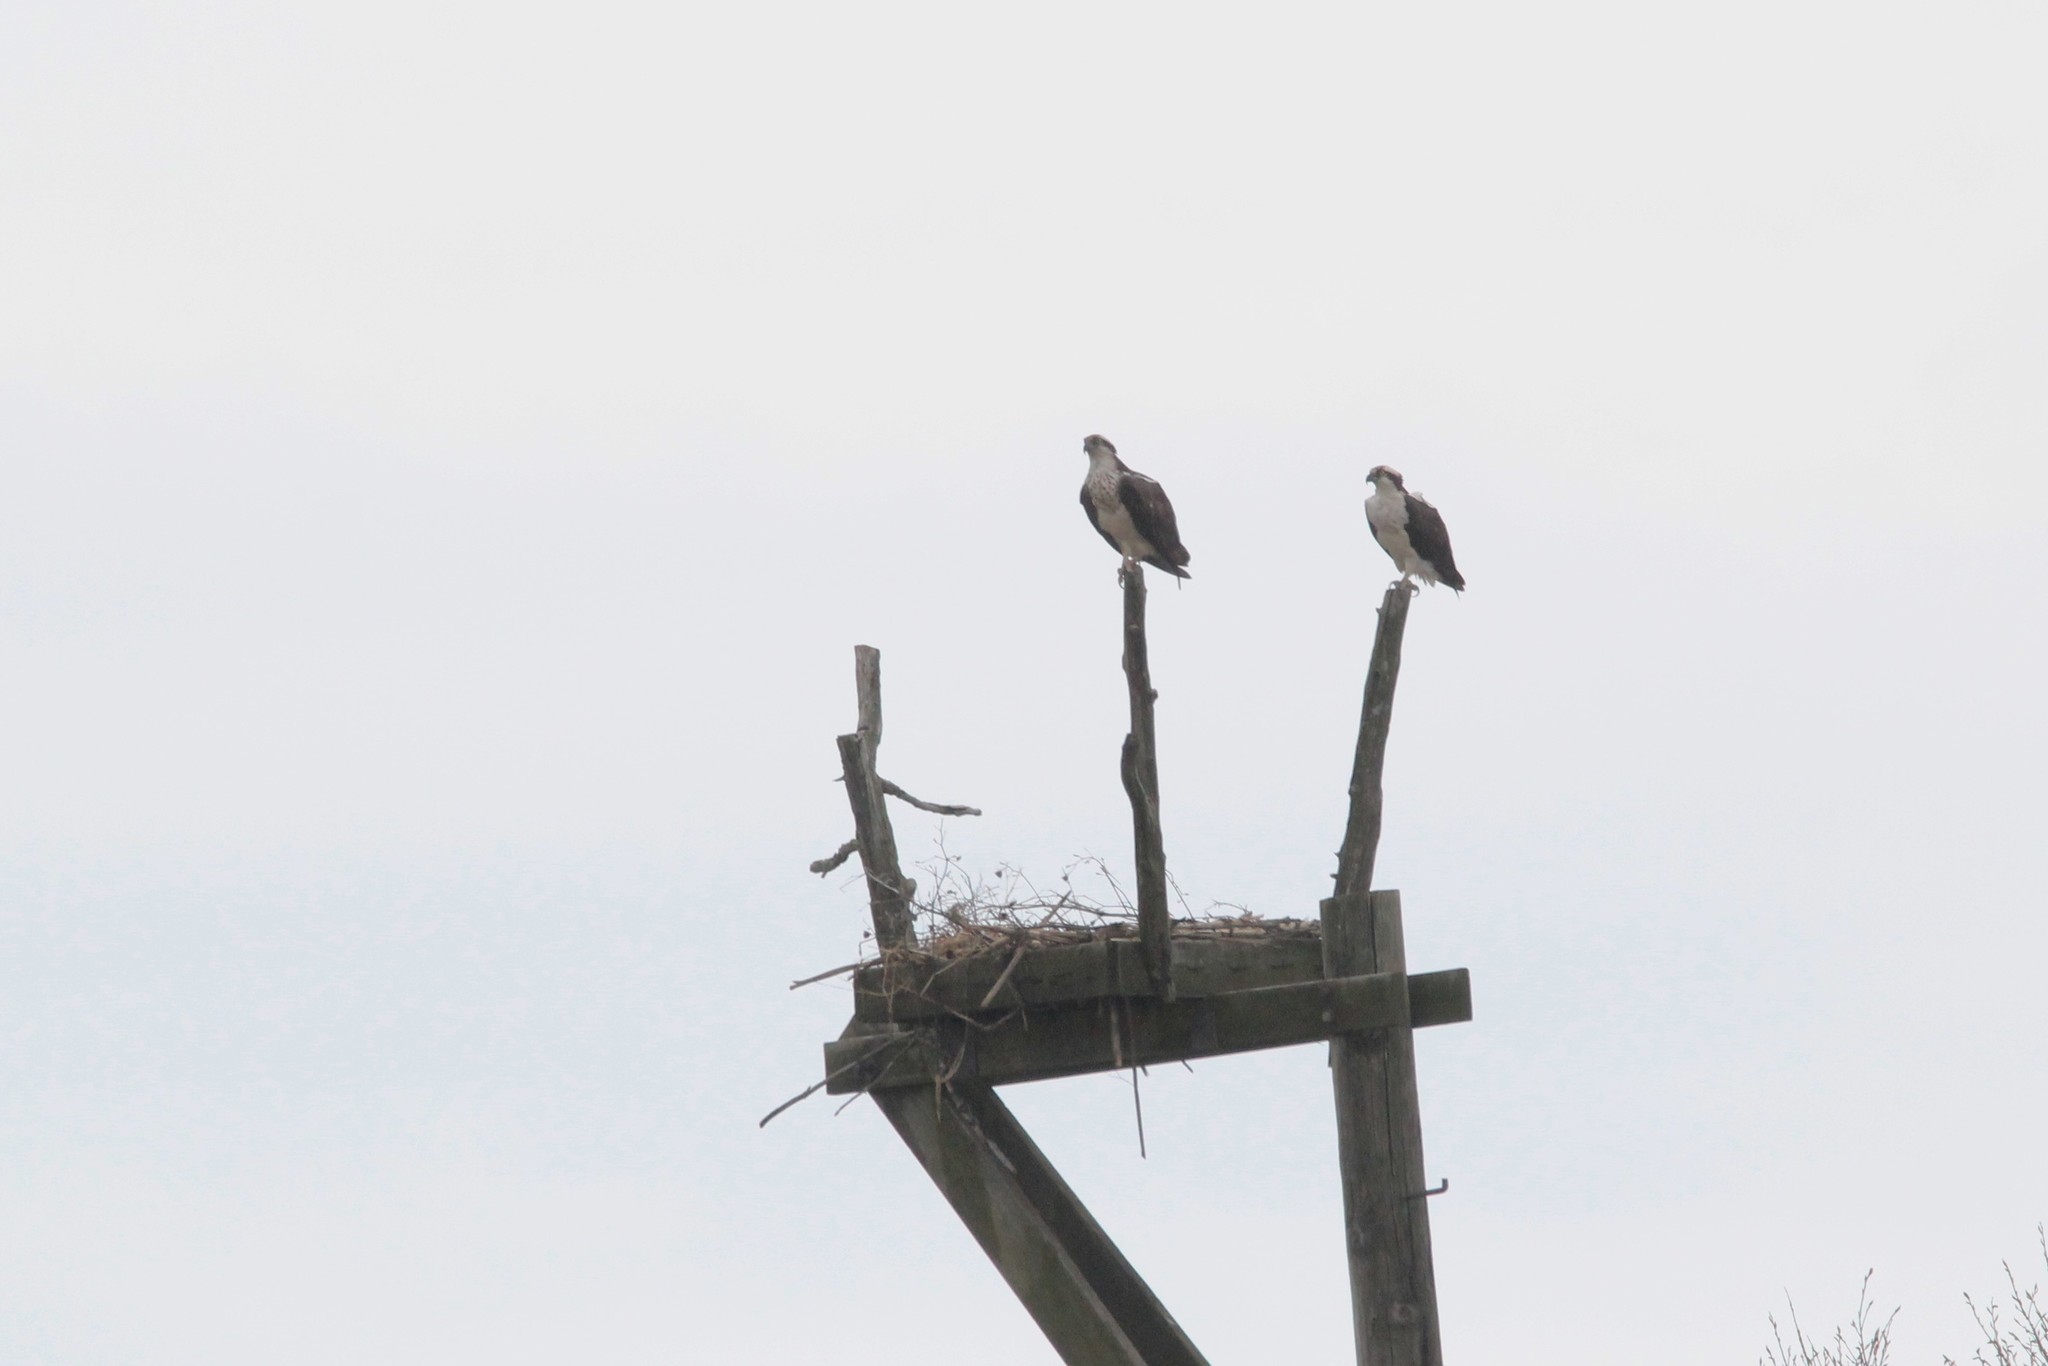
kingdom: Animalia
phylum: Chordata
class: Aves
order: Accipitriformes
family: Pandionidae
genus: Pandion
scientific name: Pandion haliaetus
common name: Osprey
